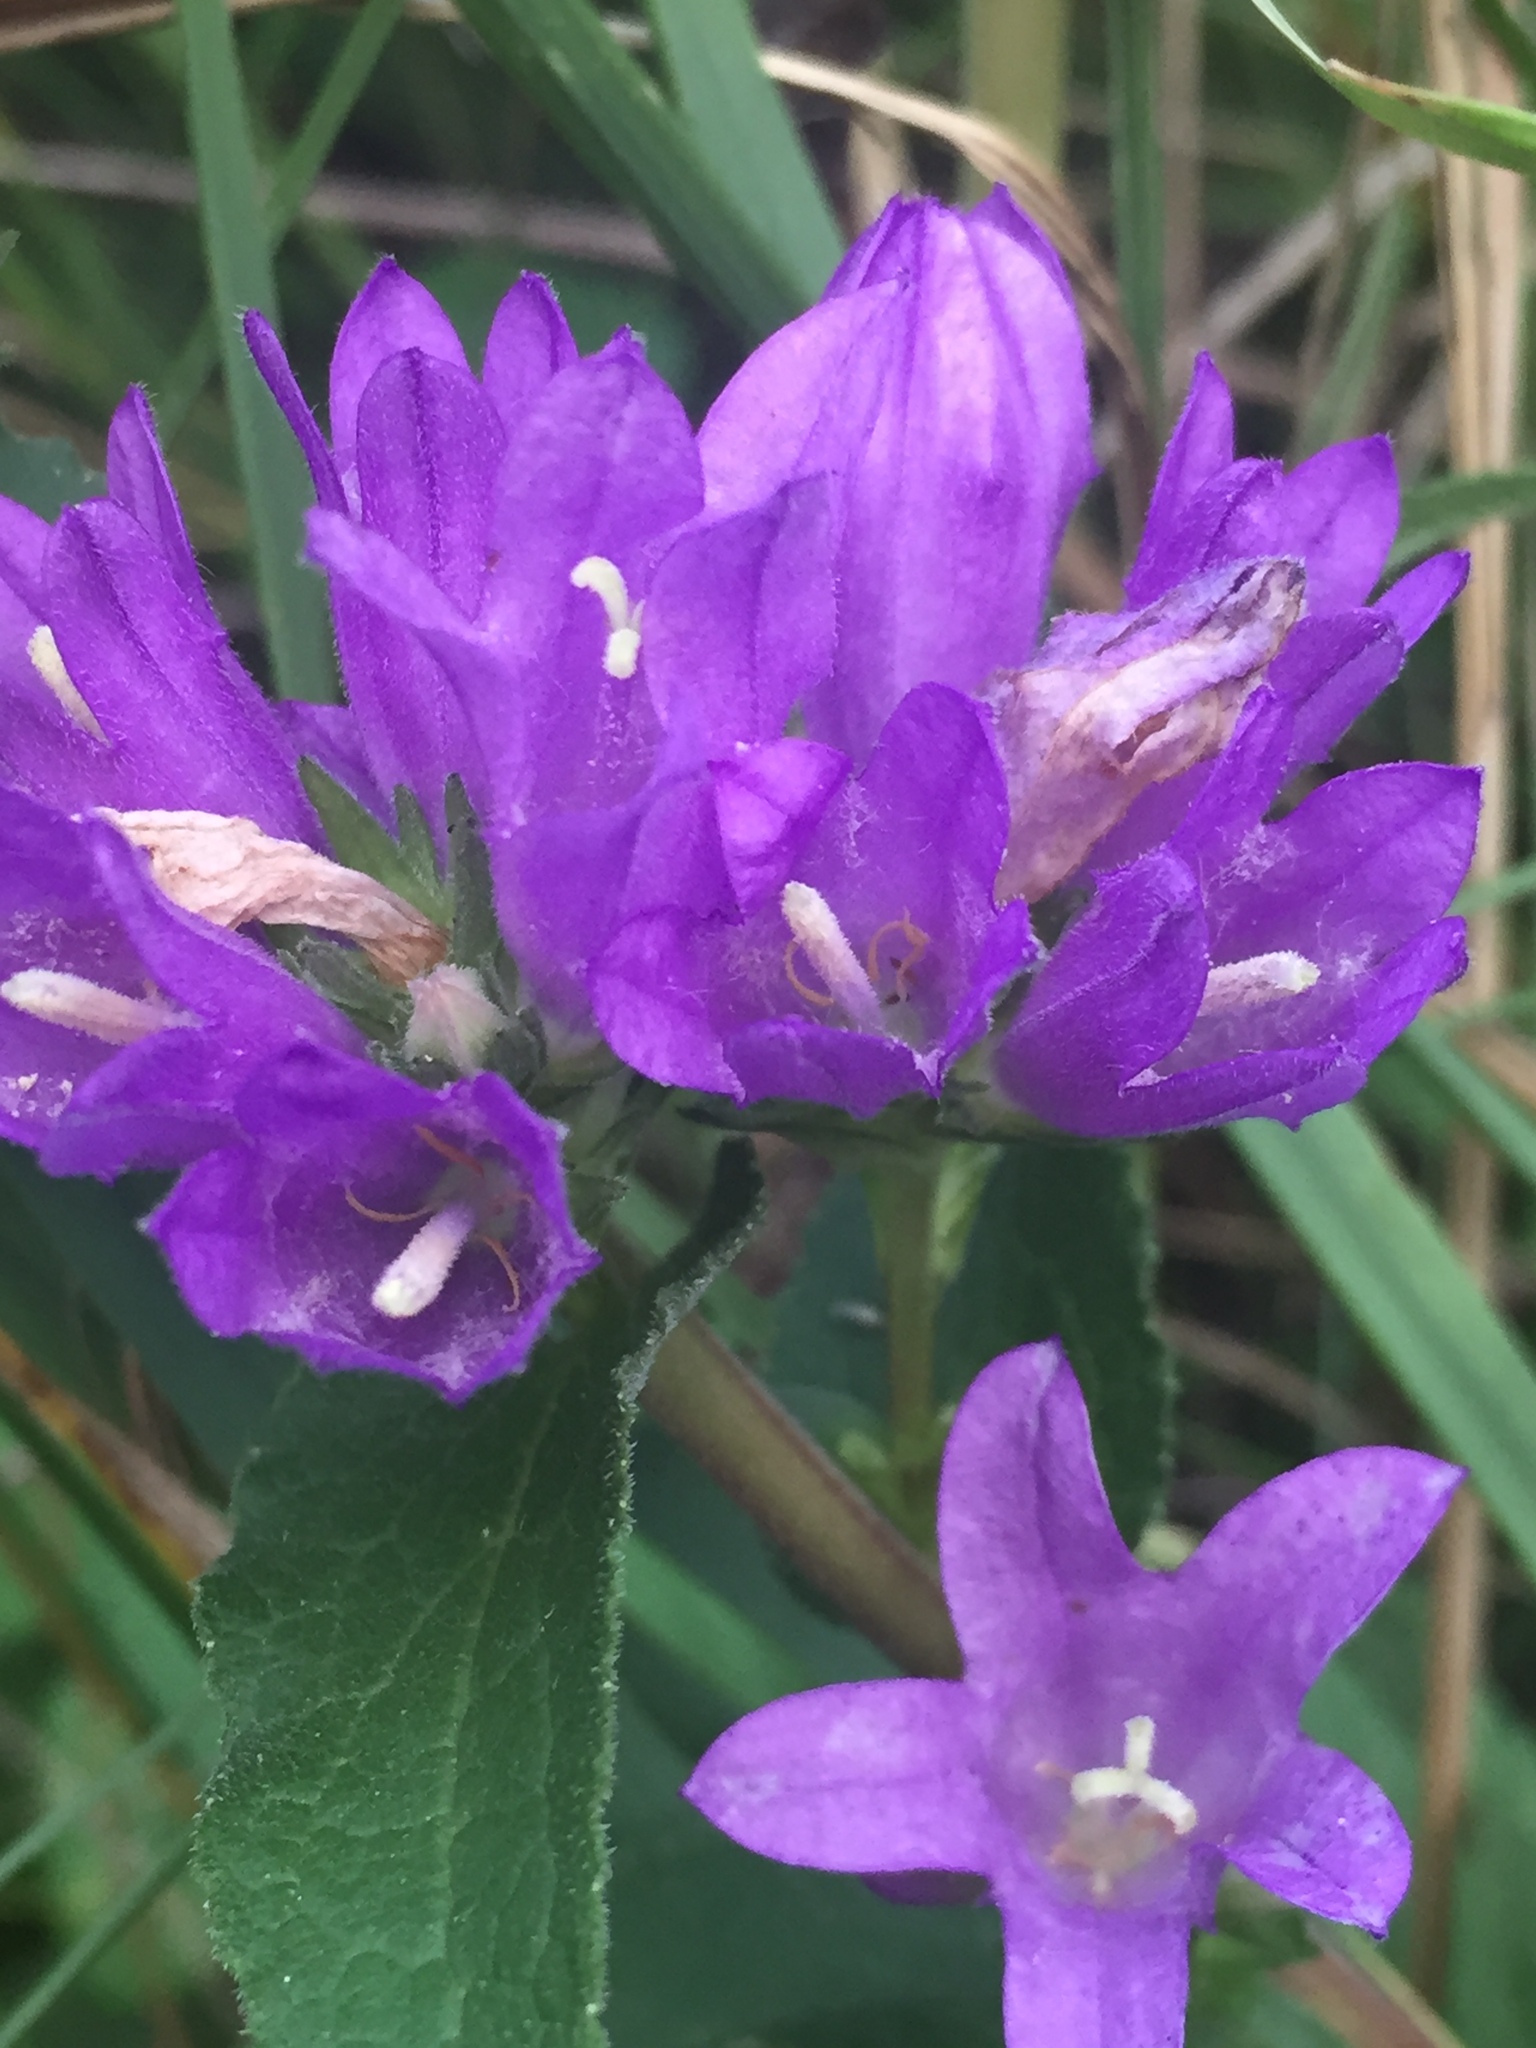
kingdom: Plantae
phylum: Tracheophyta
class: Magnoliopsida
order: Asterales
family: Campanulaceae
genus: Campanula
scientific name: Campanula glomerata
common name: Clustered bellflower
